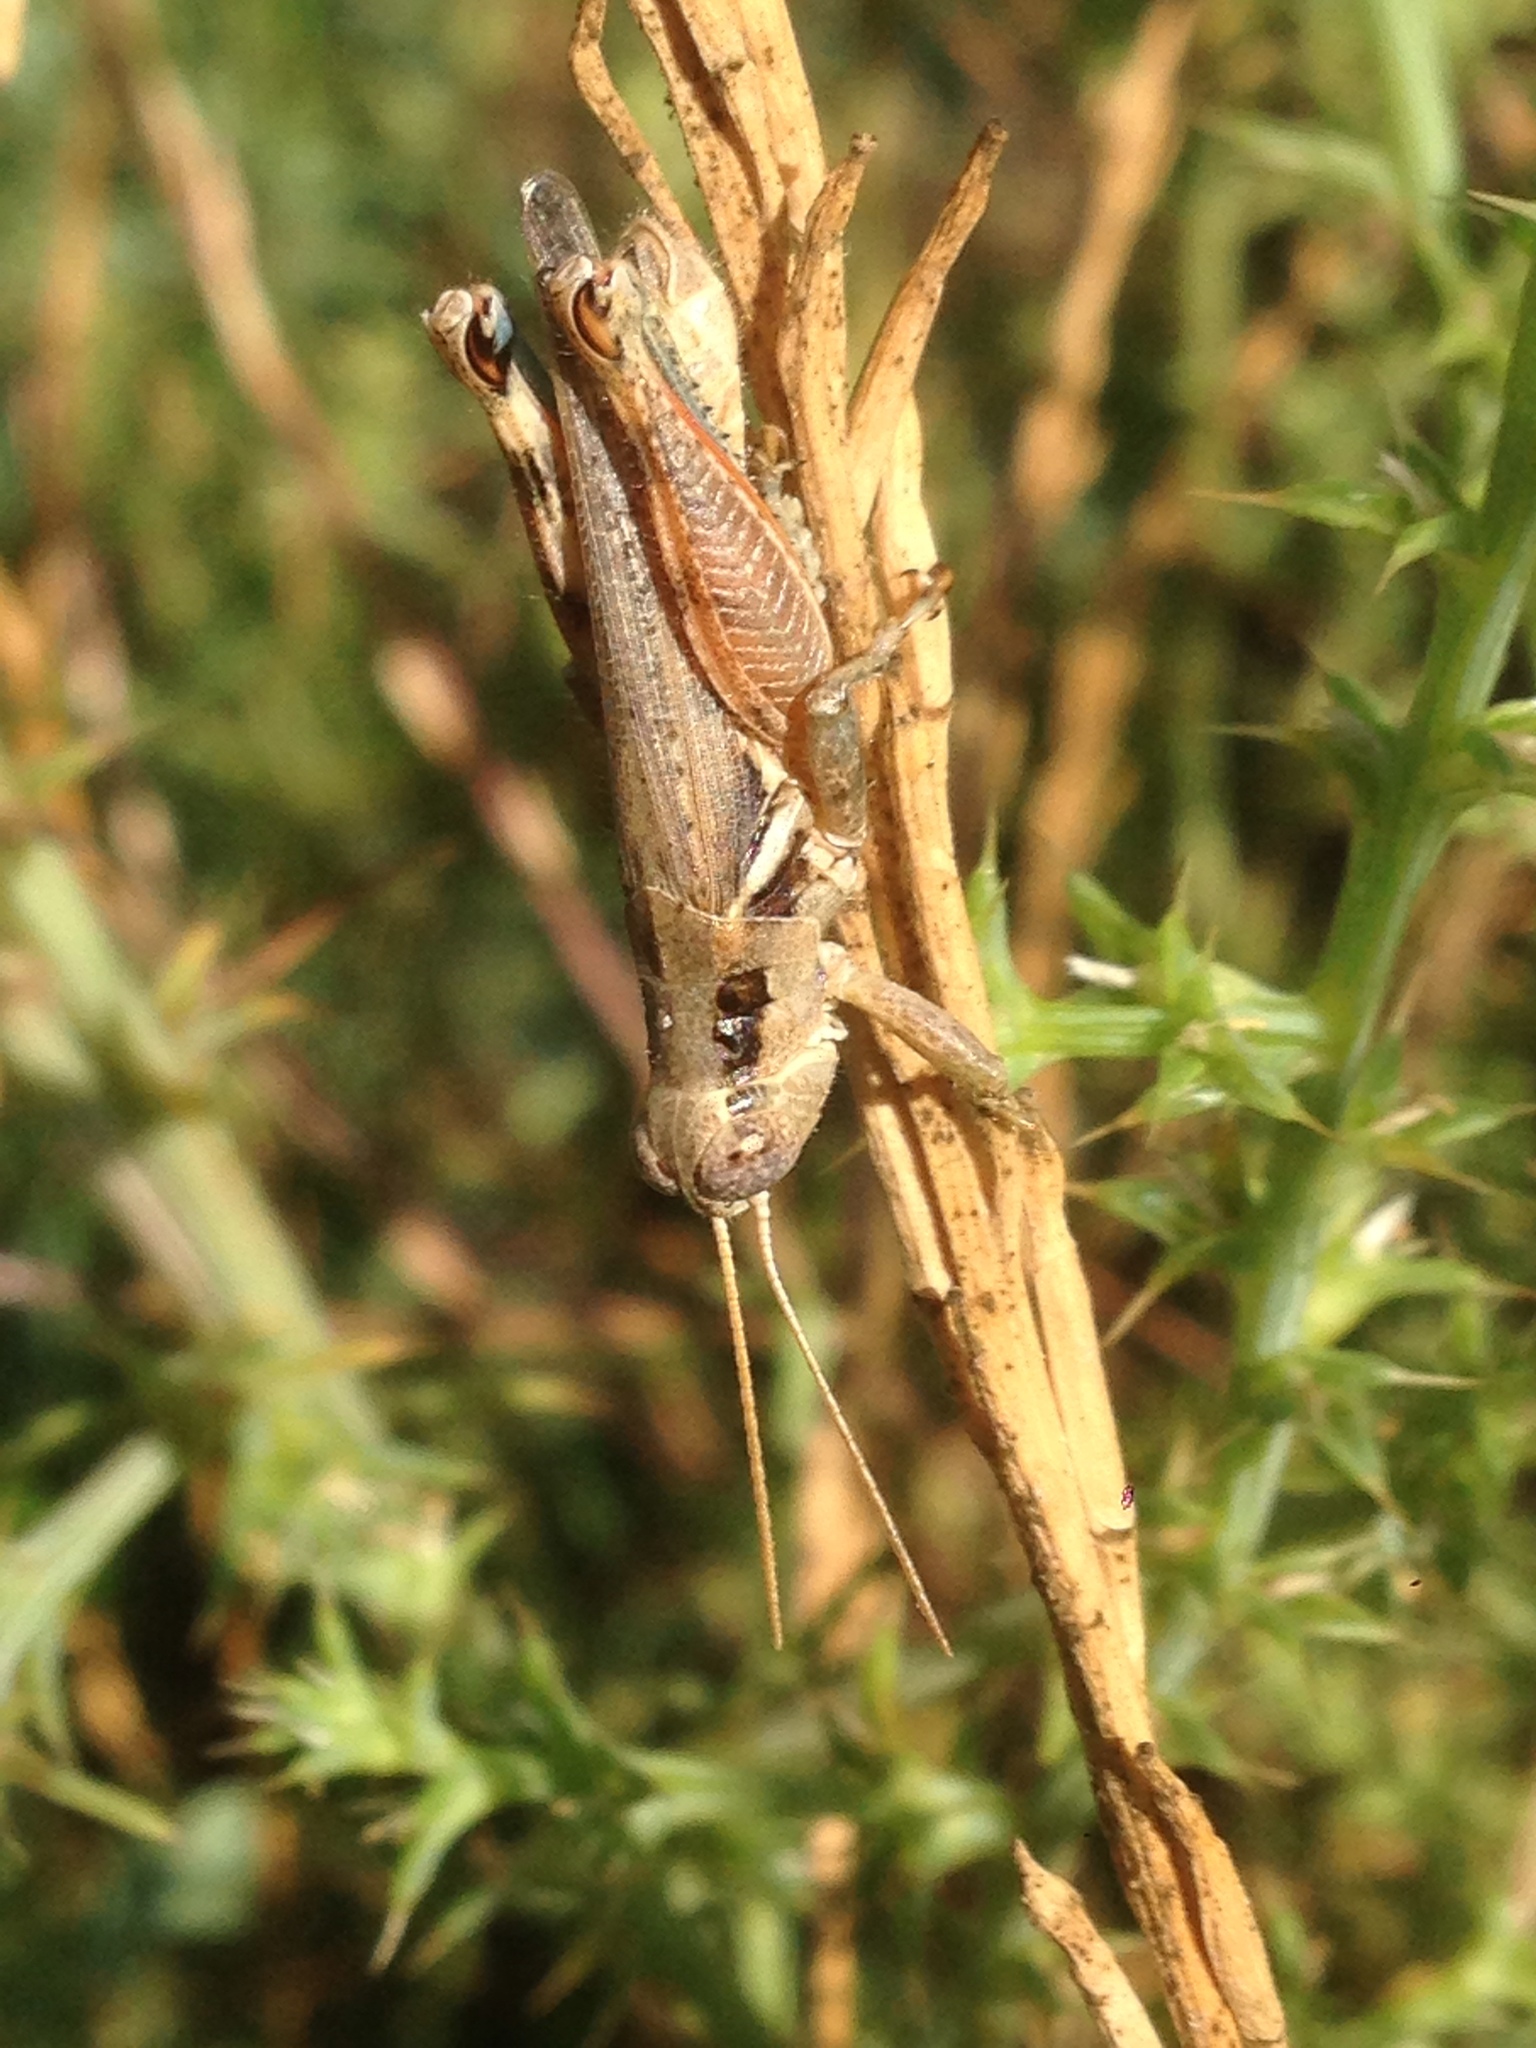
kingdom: Animalia
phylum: Arthropoda
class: Insecta
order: Orthoptera
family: Acrididae
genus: Melanoplus
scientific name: Melanoplus cinereus
